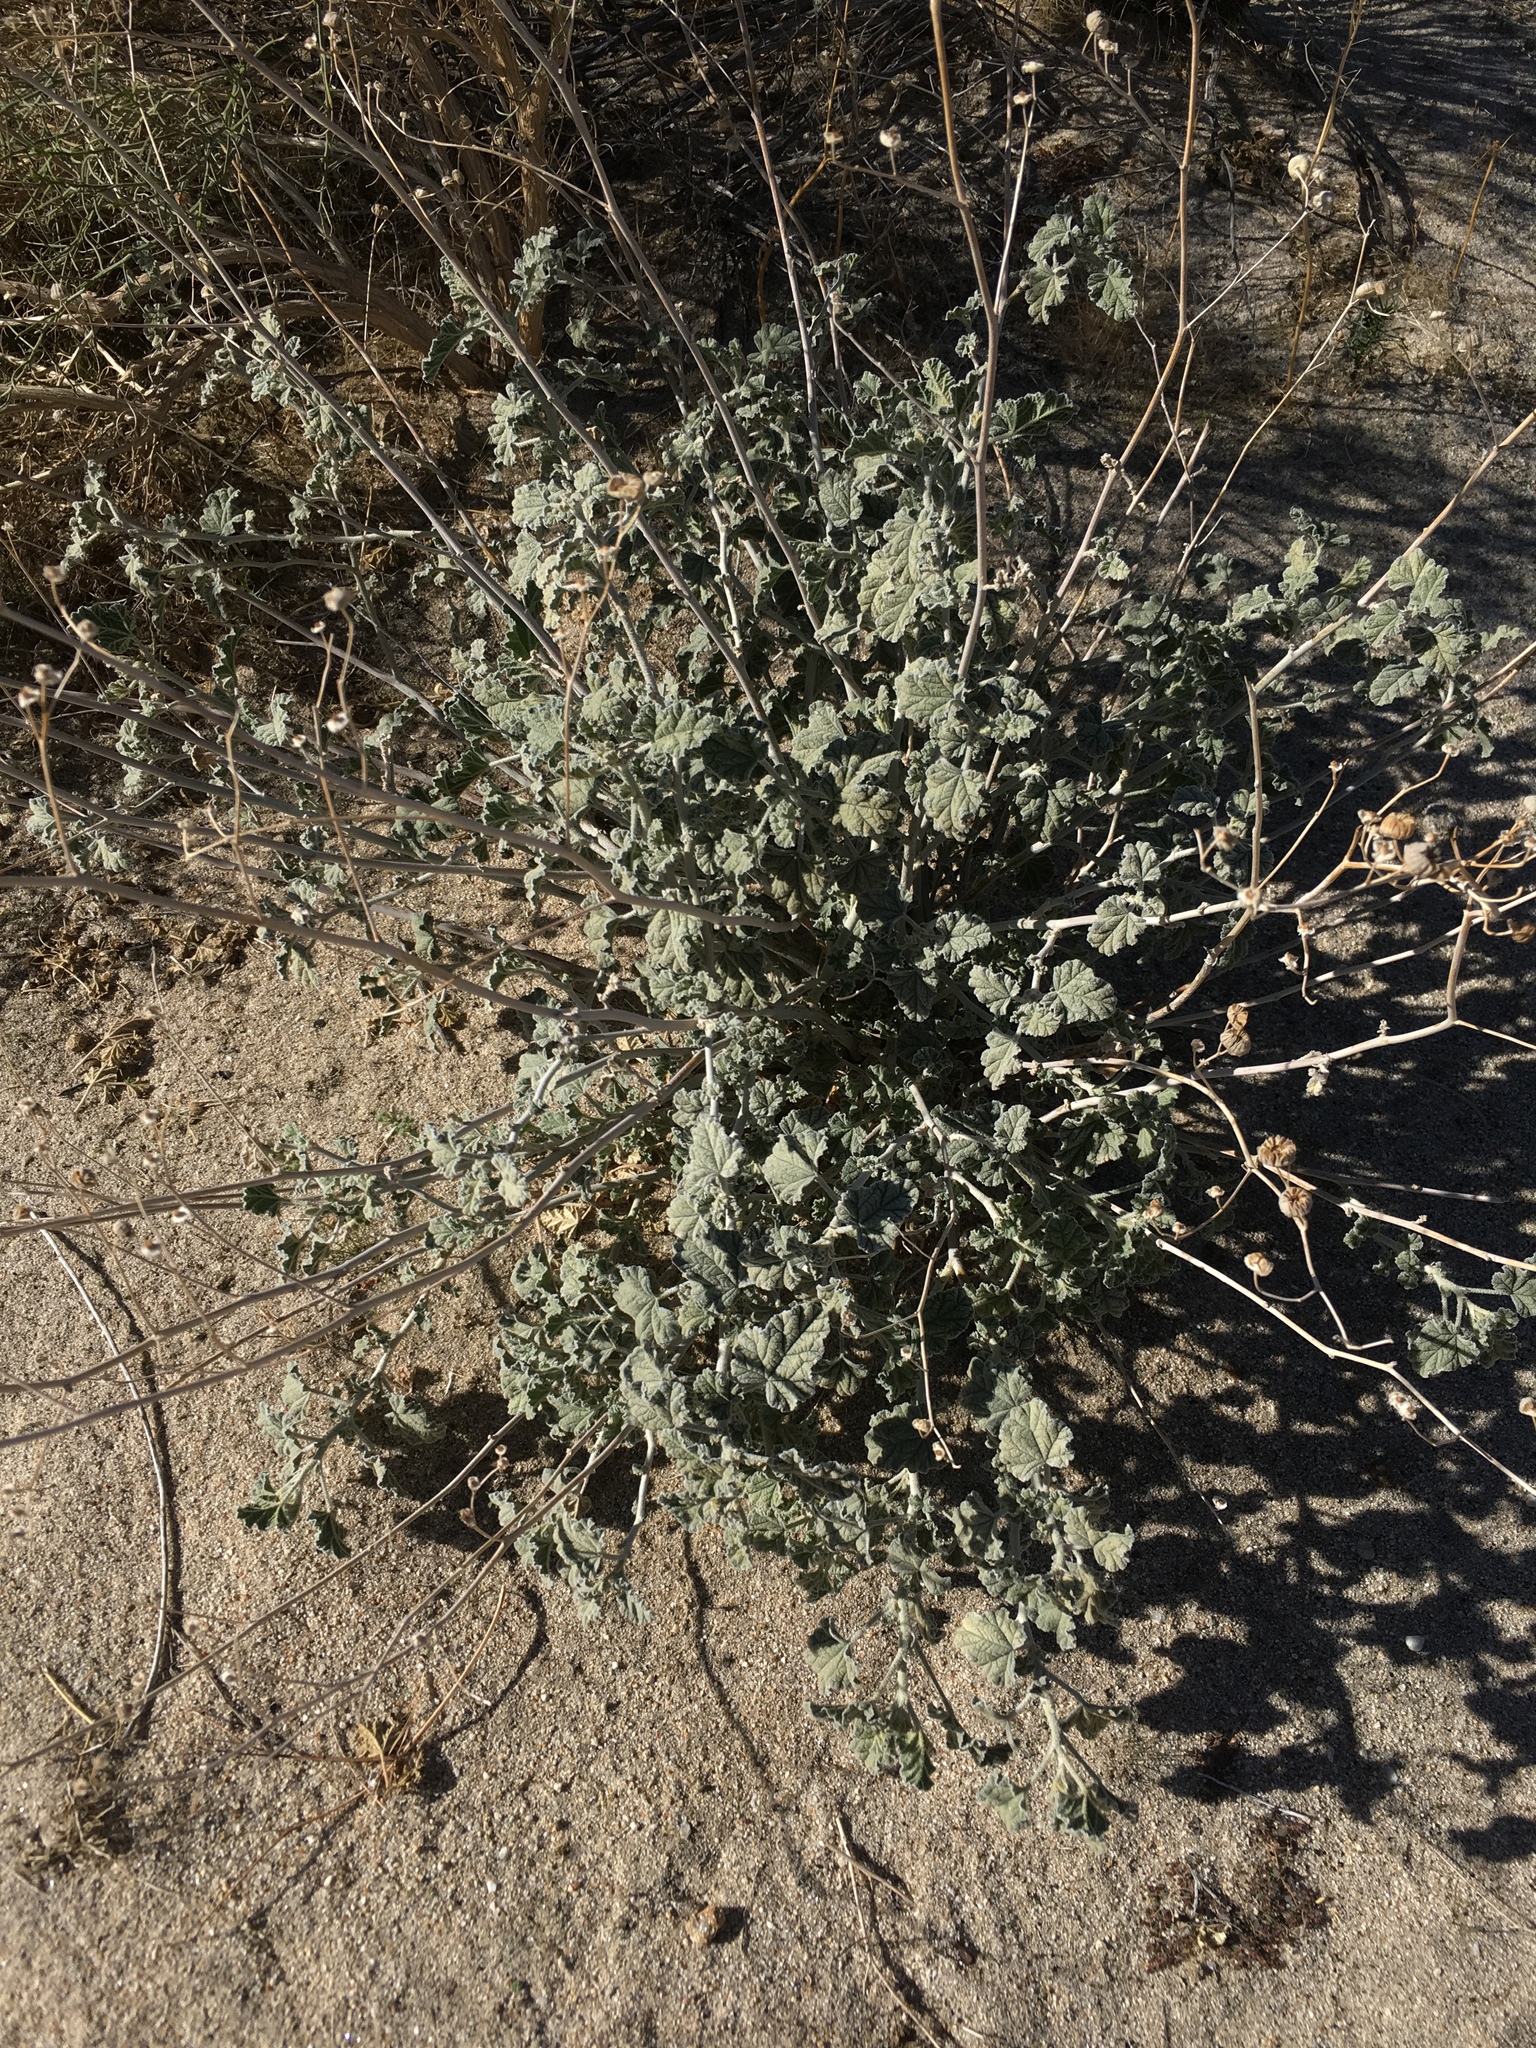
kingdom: Plantae
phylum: Tracheophyta
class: Magnoliopsida
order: Malvales
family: Malvaceae
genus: Sphaeralcea
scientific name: Sphaeralcea ambigua
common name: Apricot globe-mallow
